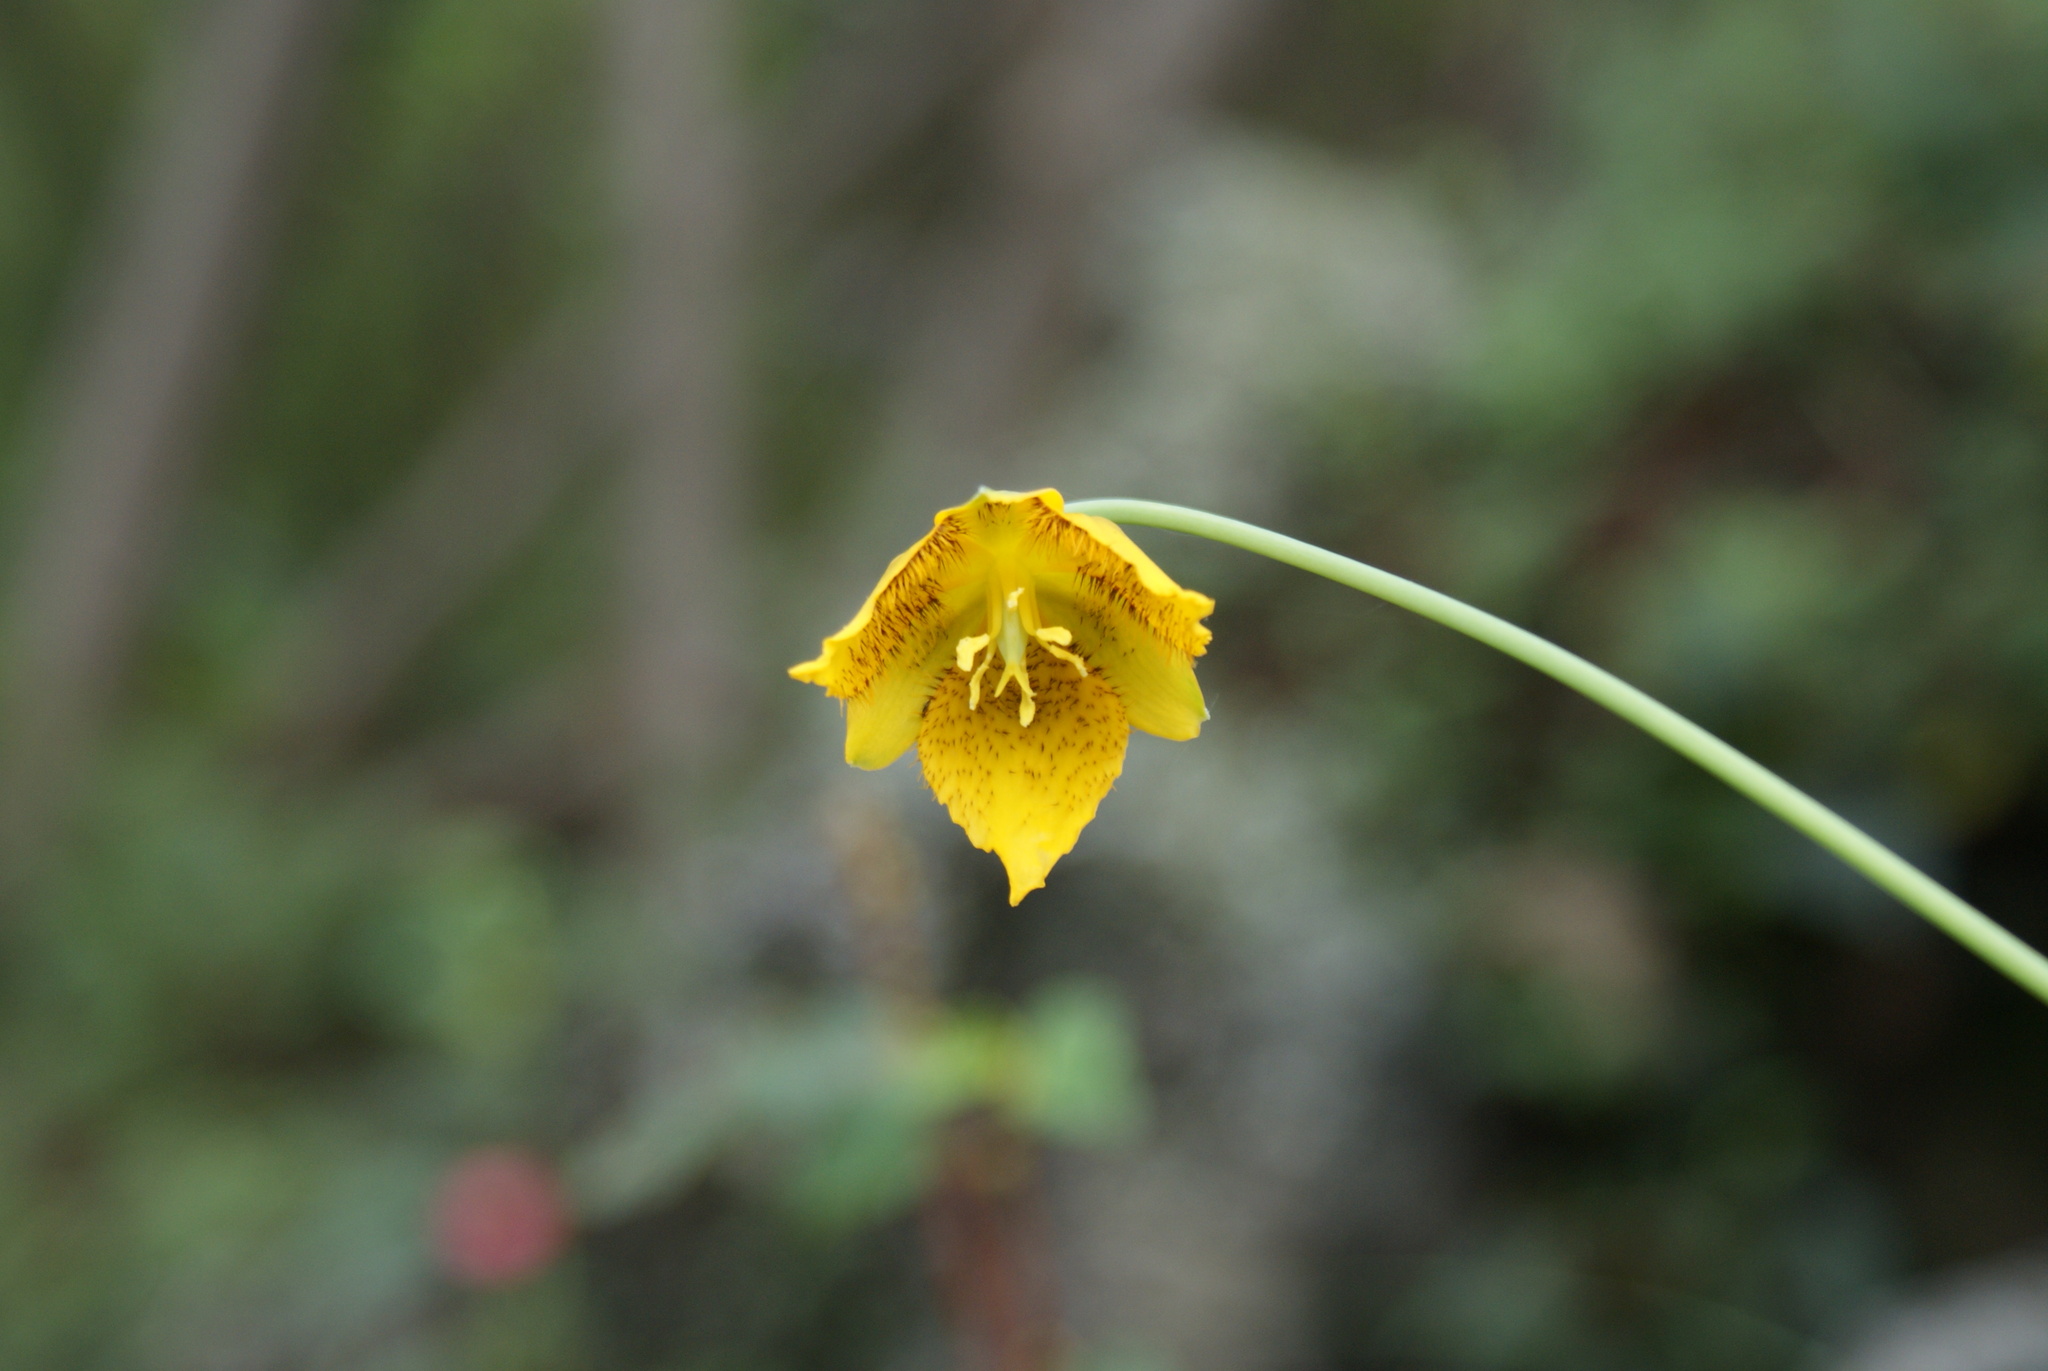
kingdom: Plantae
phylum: Tracheophyta
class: Liliopsida
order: Liliales
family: Liliaceae
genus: Calochortus
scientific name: Calochortus barbatus
